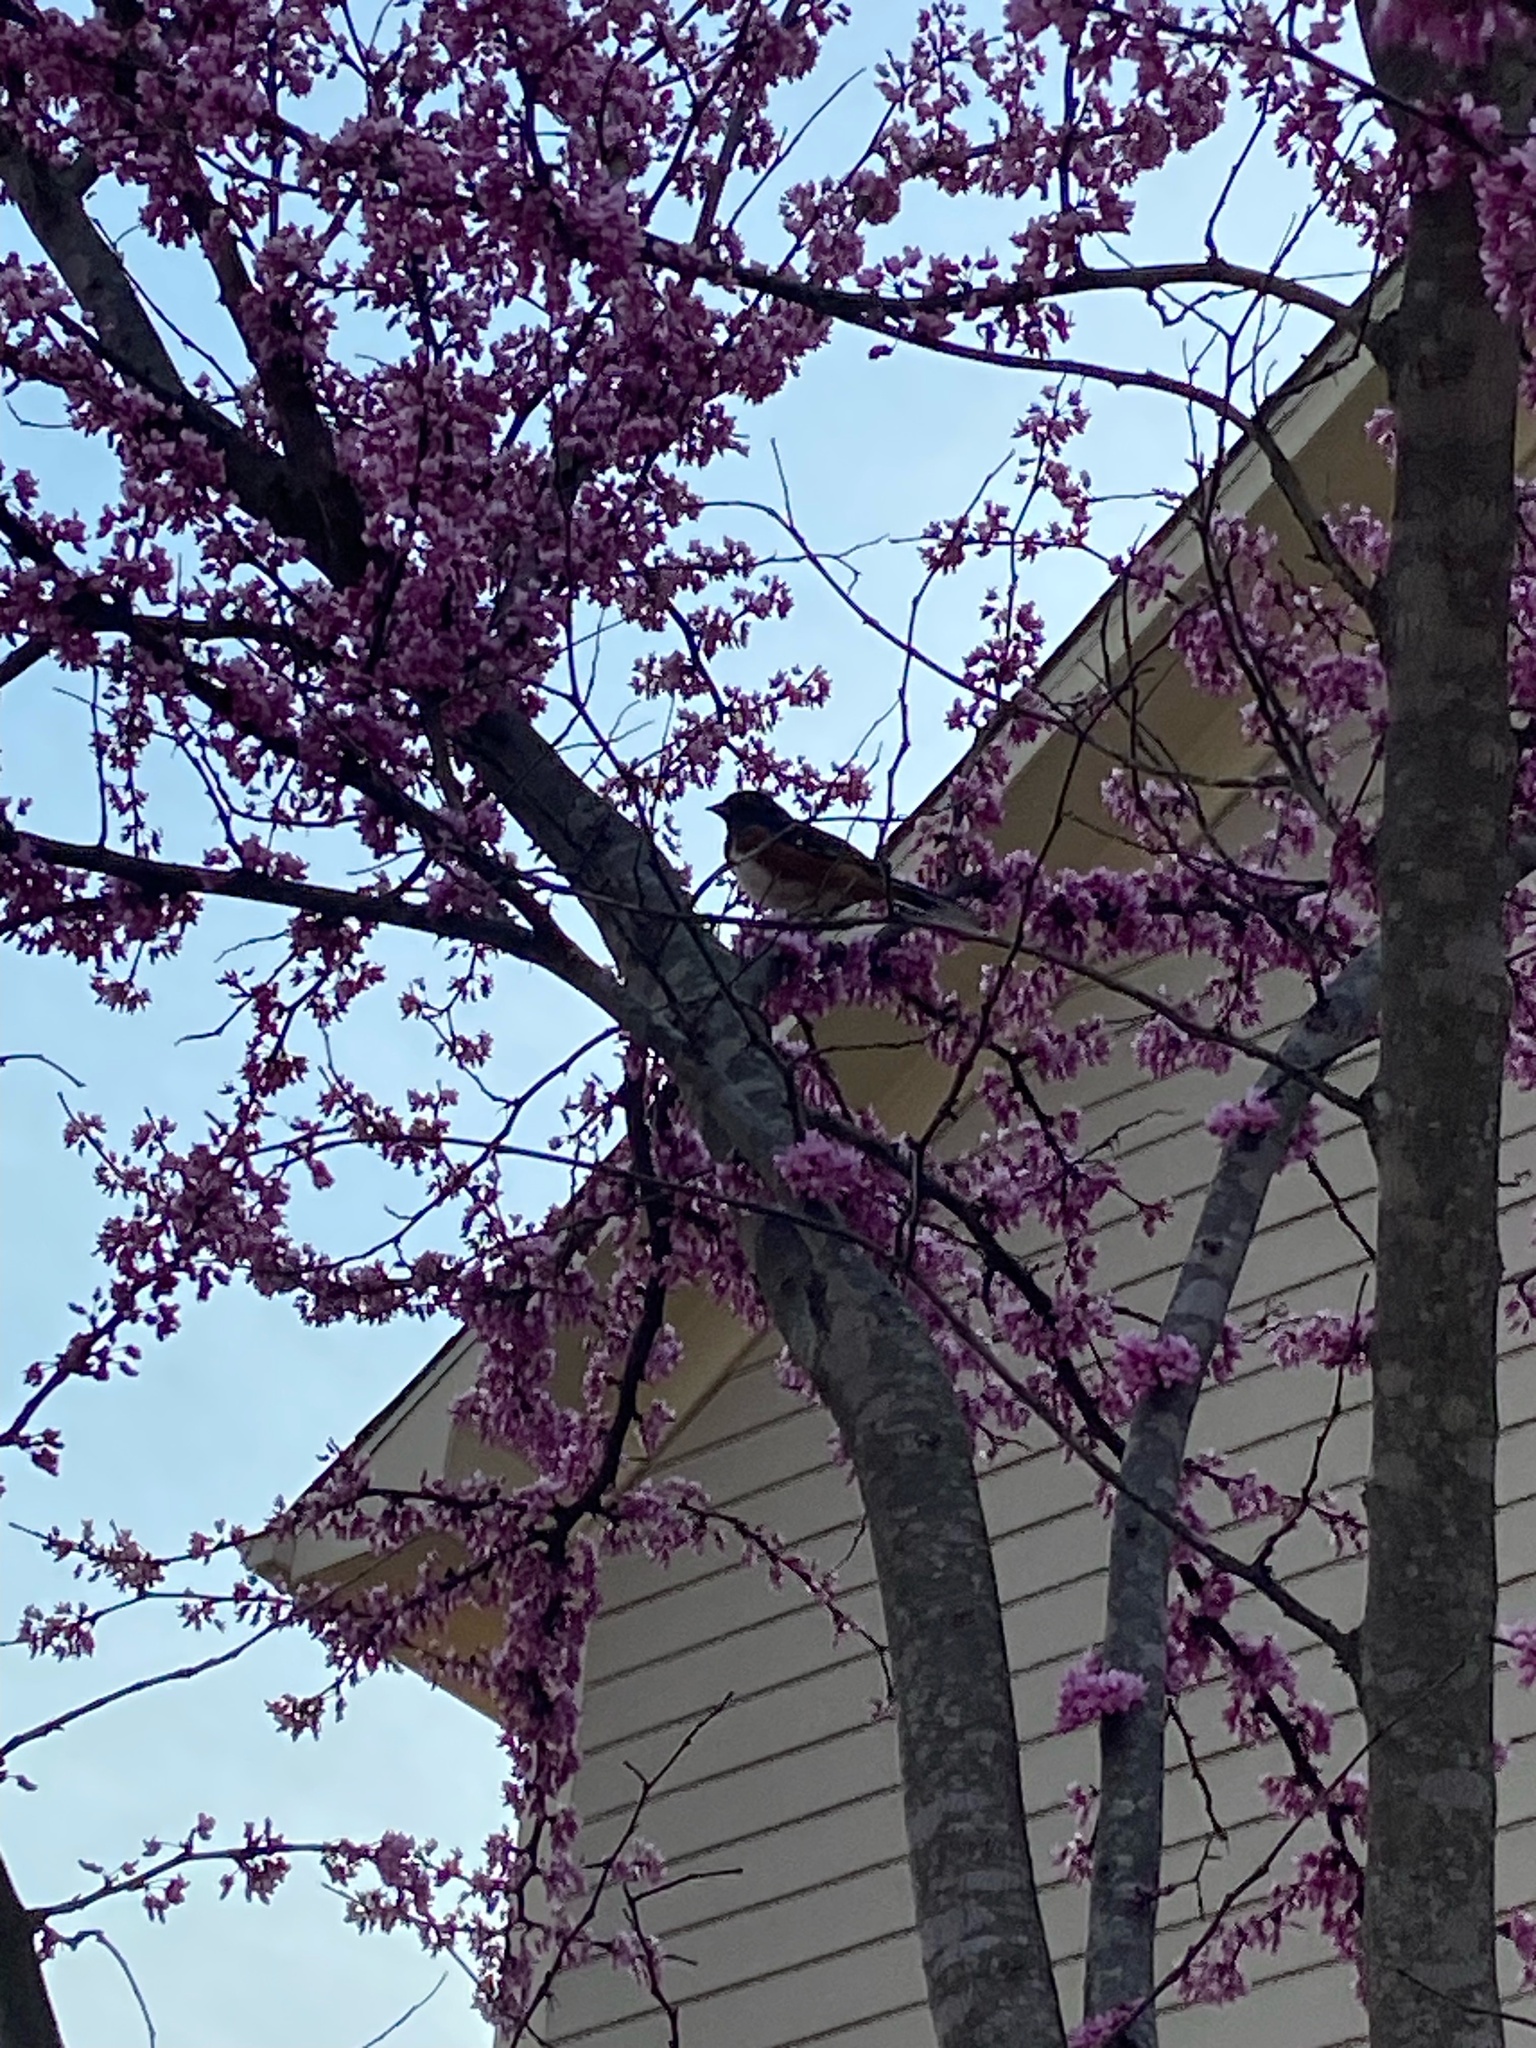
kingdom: Plantae
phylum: Tracheophyta
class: Magnoliopsida
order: Fabales
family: Fabaceae
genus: Cercis
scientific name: Cercis canadensis
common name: Eastern redbud
